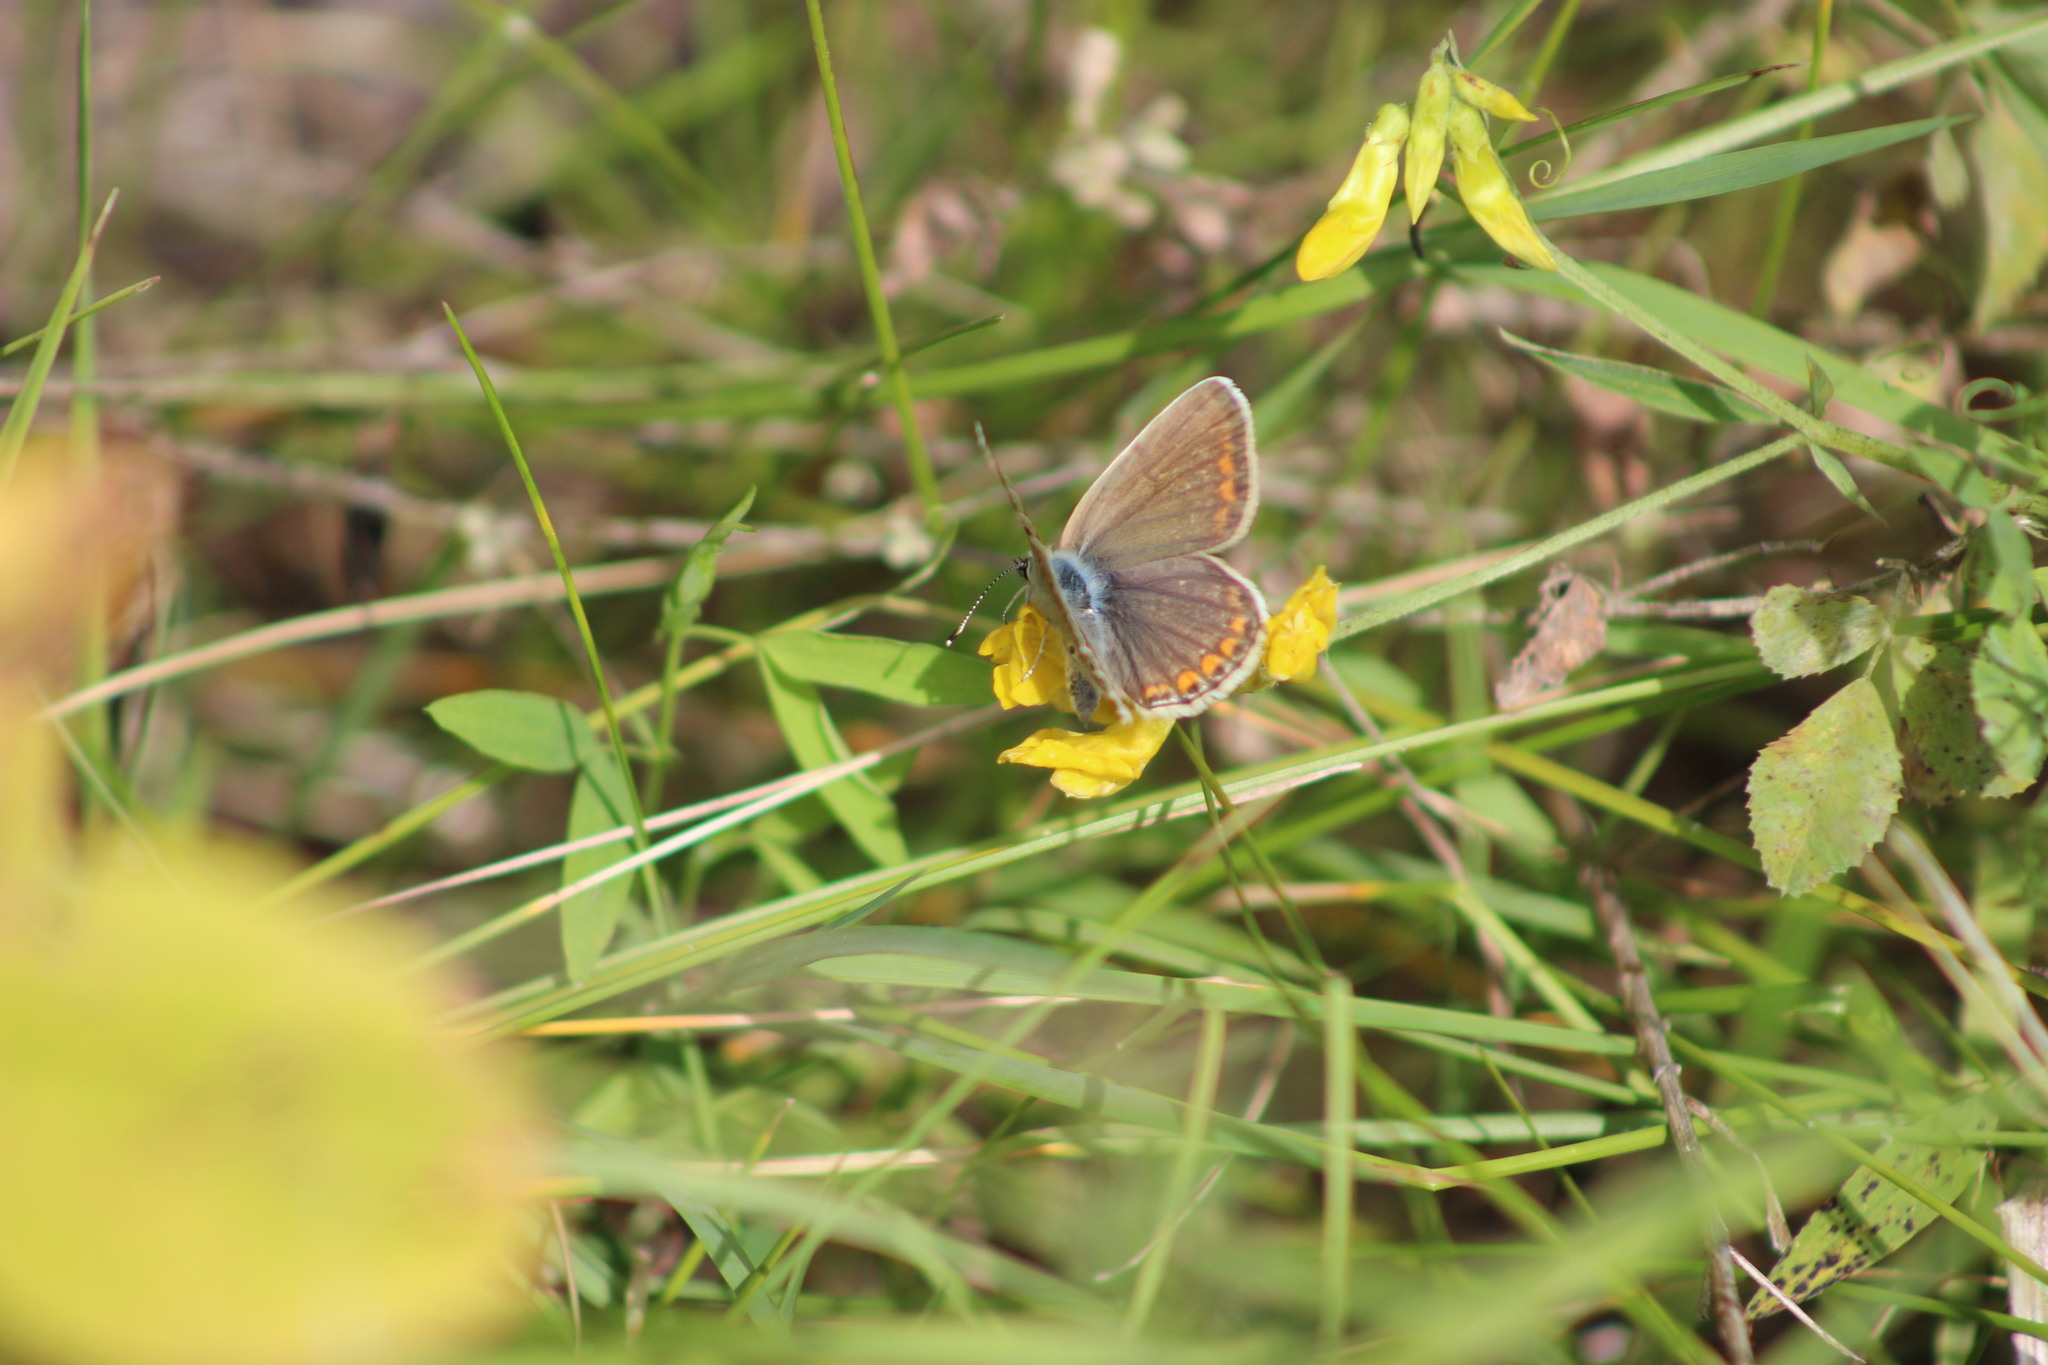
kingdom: Animalia
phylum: Arthropoda
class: Insecta
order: Lepidoptera
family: Lycaenidae
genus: Polyommatus
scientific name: Polyommatus icarus
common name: Common blue
